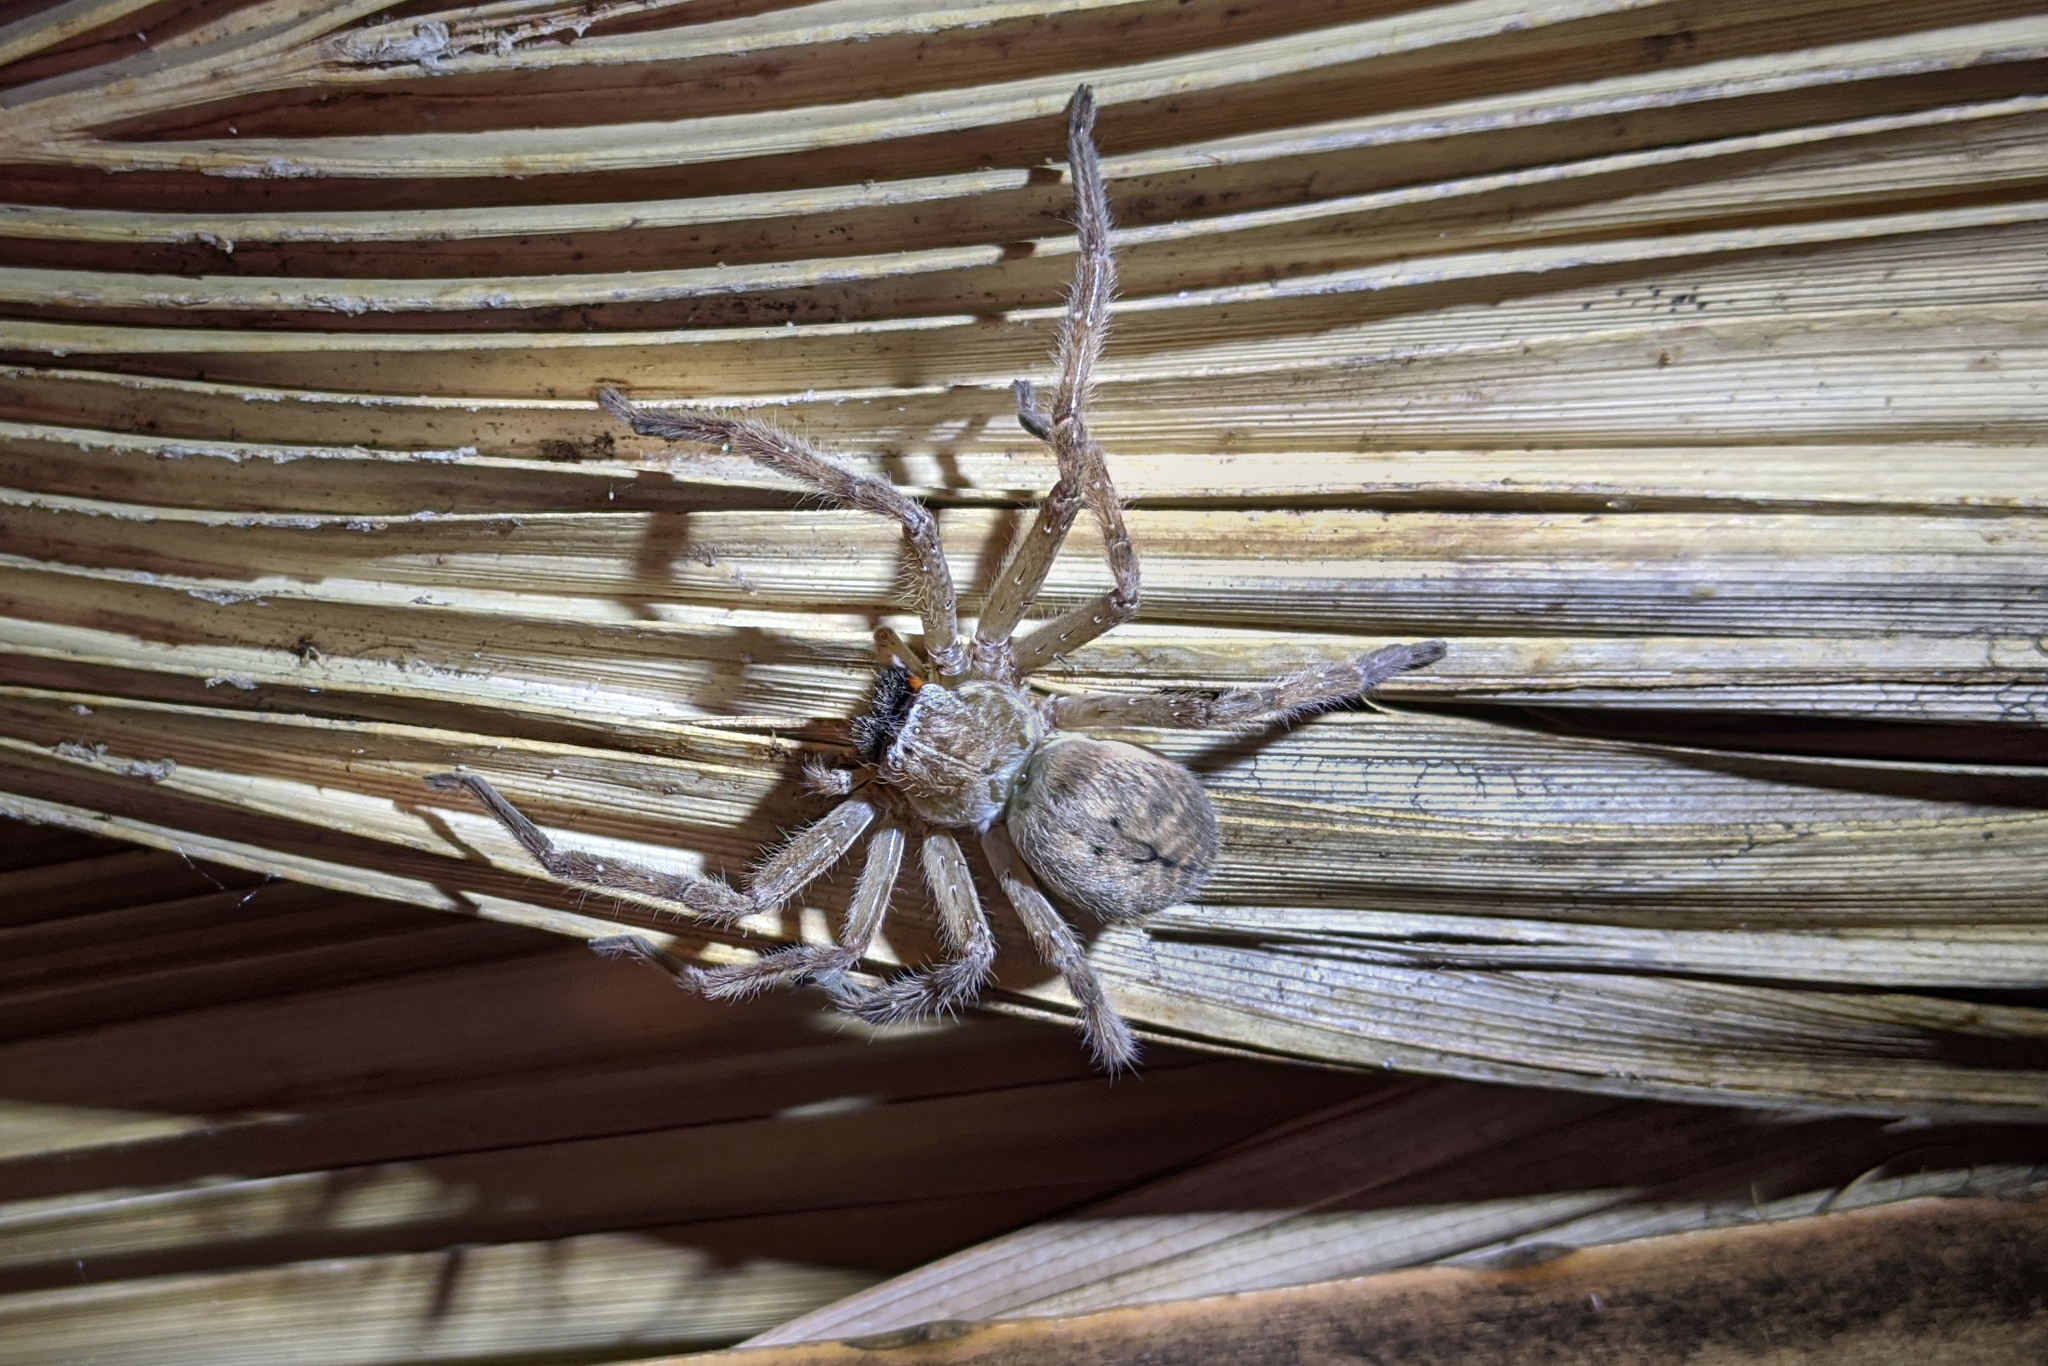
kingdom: Animalia
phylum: Arthropoda
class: Arachnida
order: Araneae
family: Sparassidae
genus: Olios
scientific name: Olios giganteus
